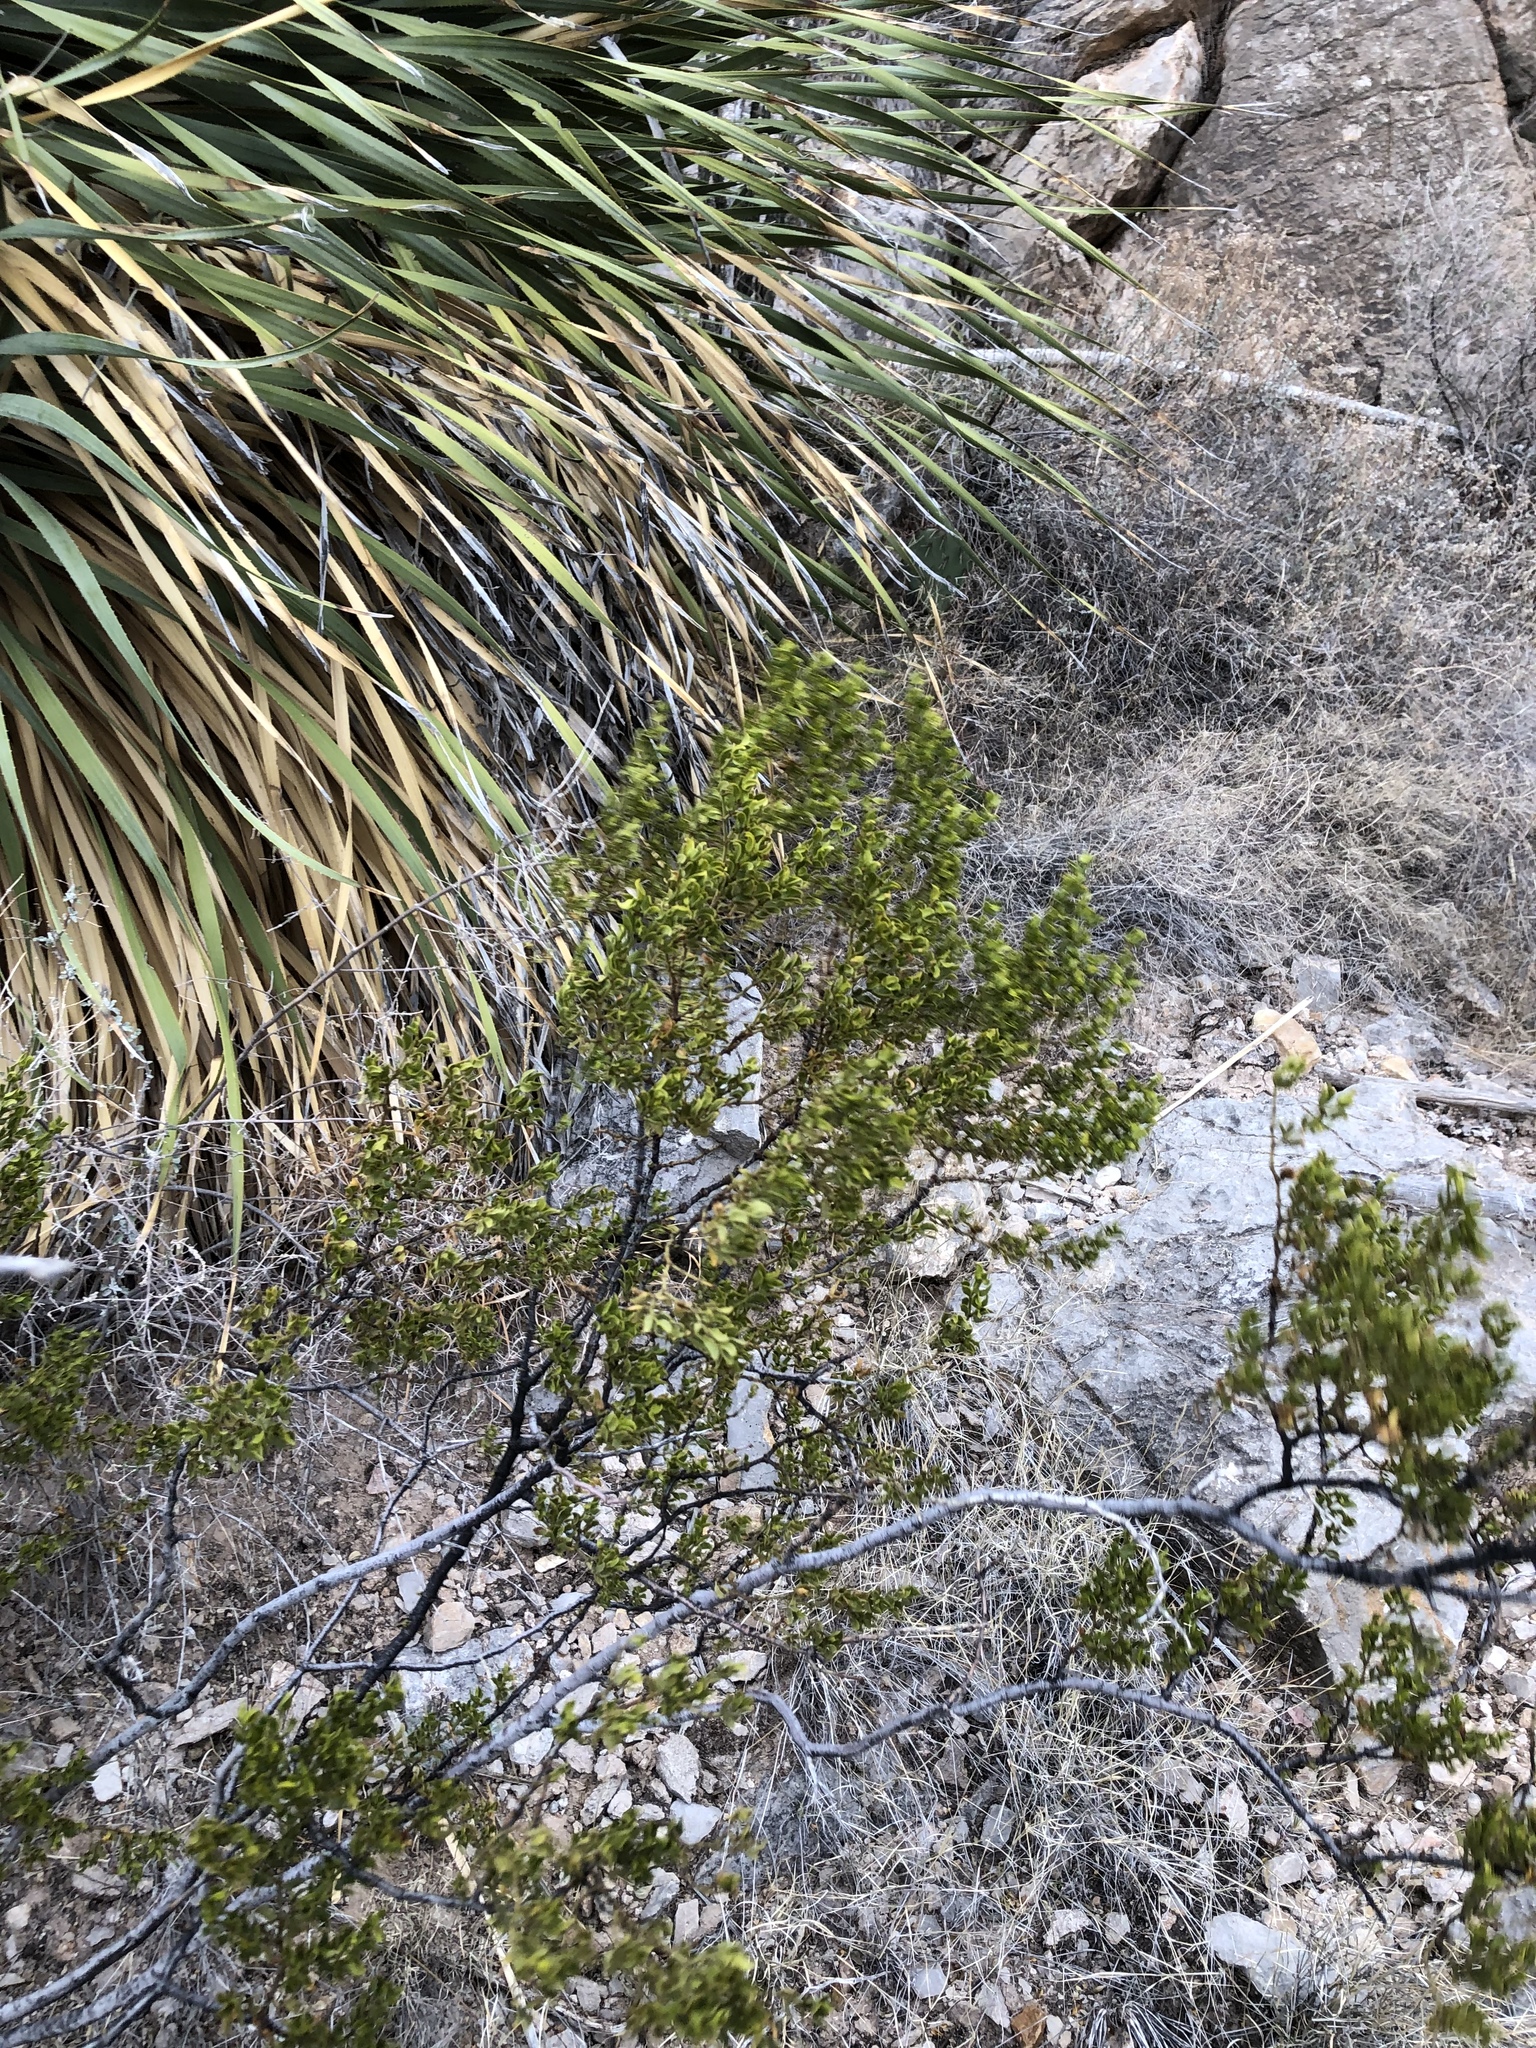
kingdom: Plantae
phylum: Tracheophyta
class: Magnoliopsida
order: Zygophyllales
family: Zygophyllaceae
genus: Larrea
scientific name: Larrea tridentata
